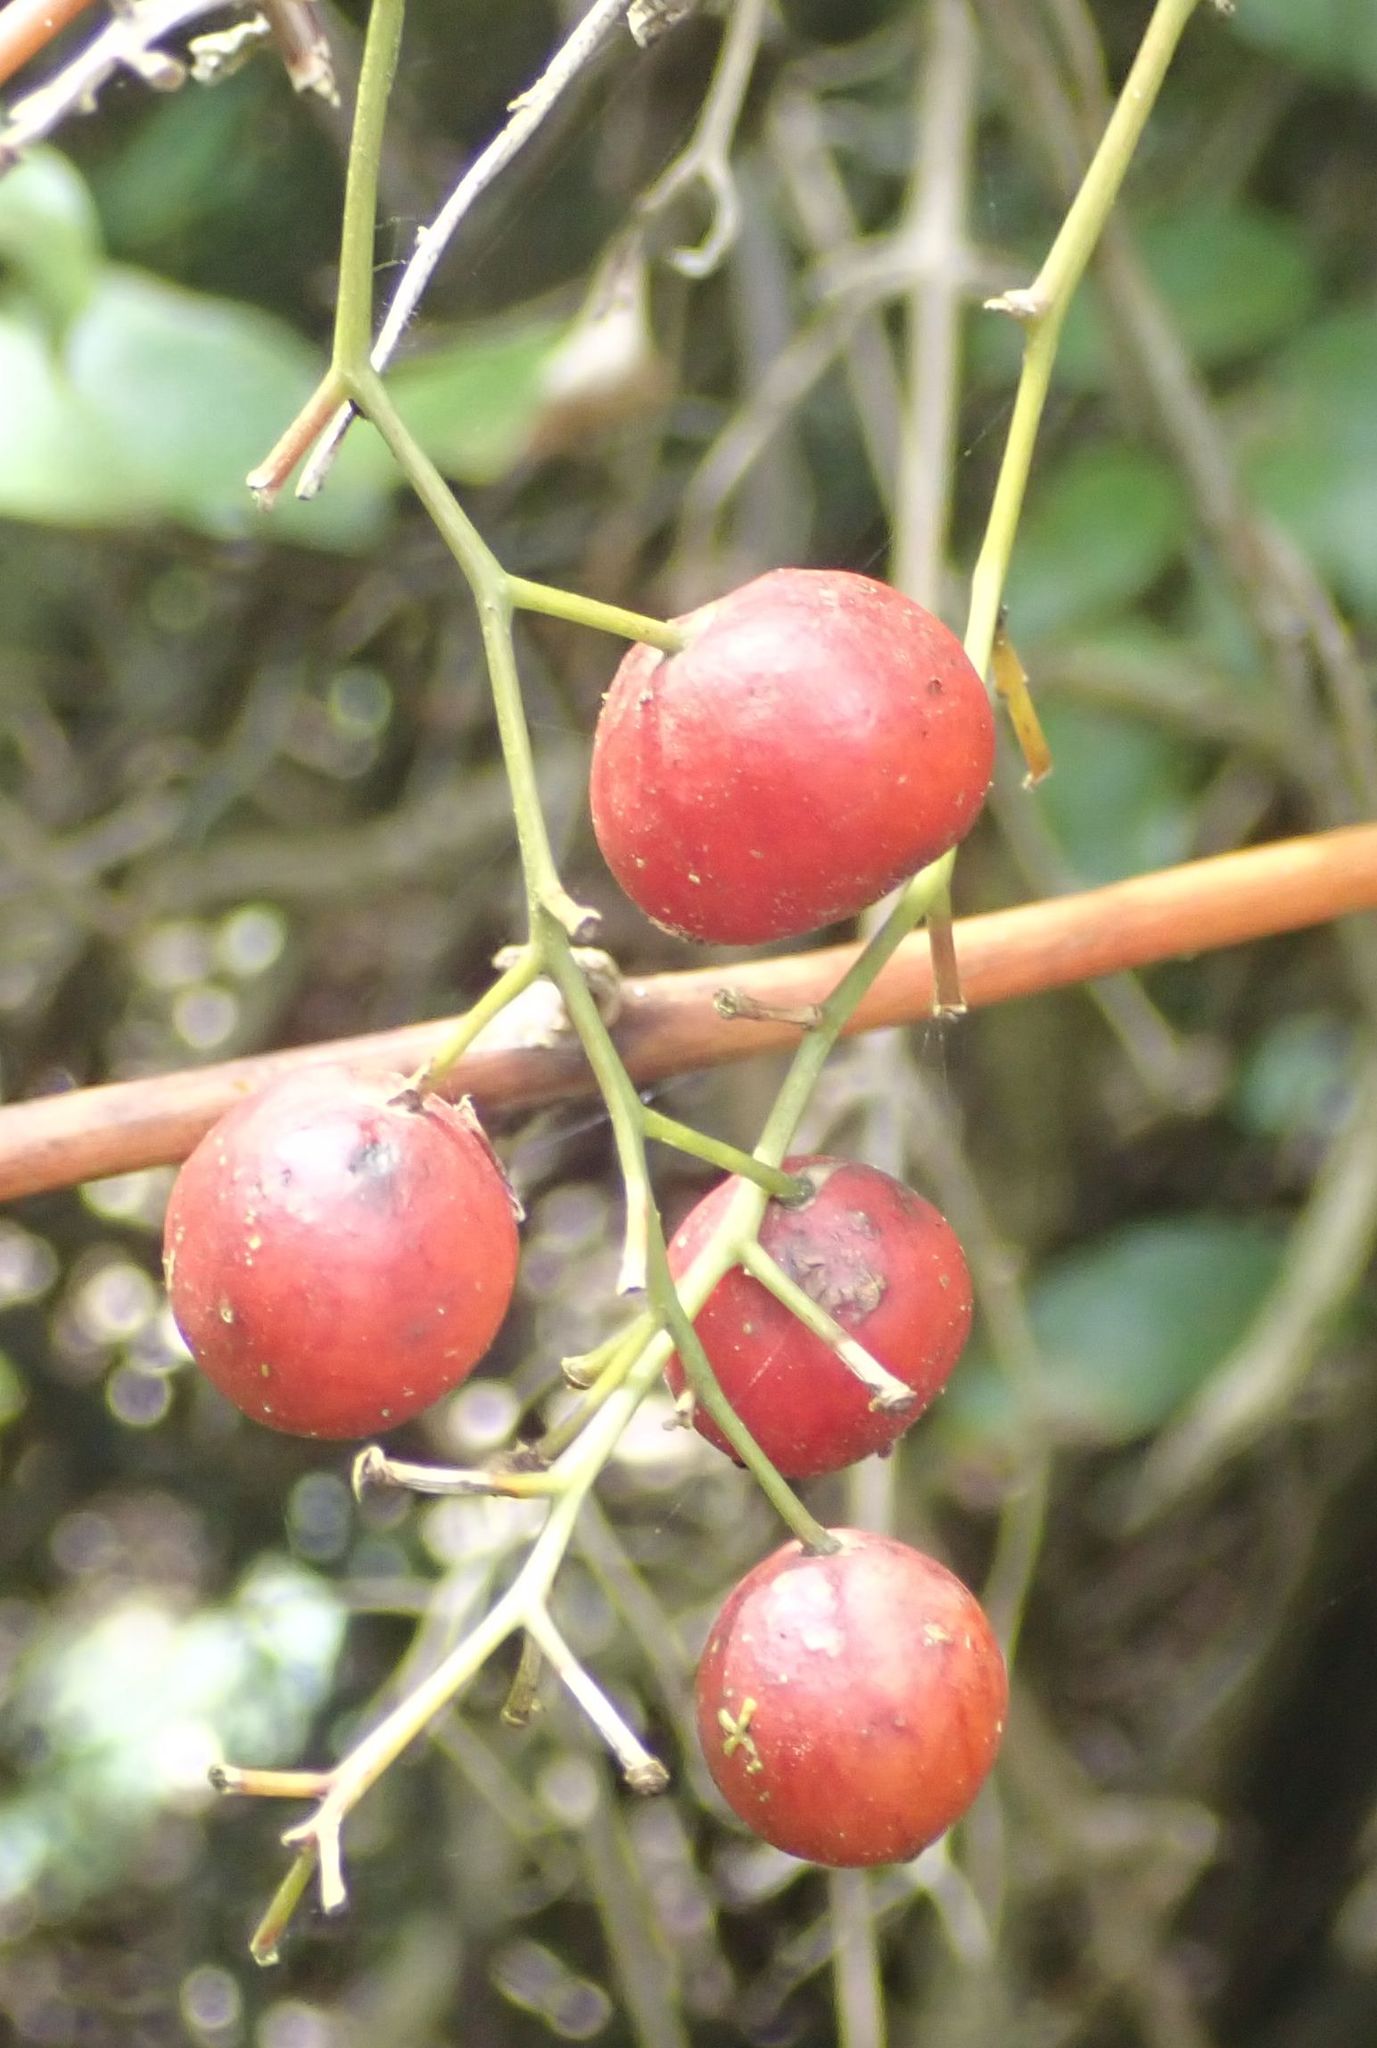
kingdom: Plantae
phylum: Tracheophyta
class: Liliopsida
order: Liliales
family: Ripogonaceae
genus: Ripogonum
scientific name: Ripogonum scandens
